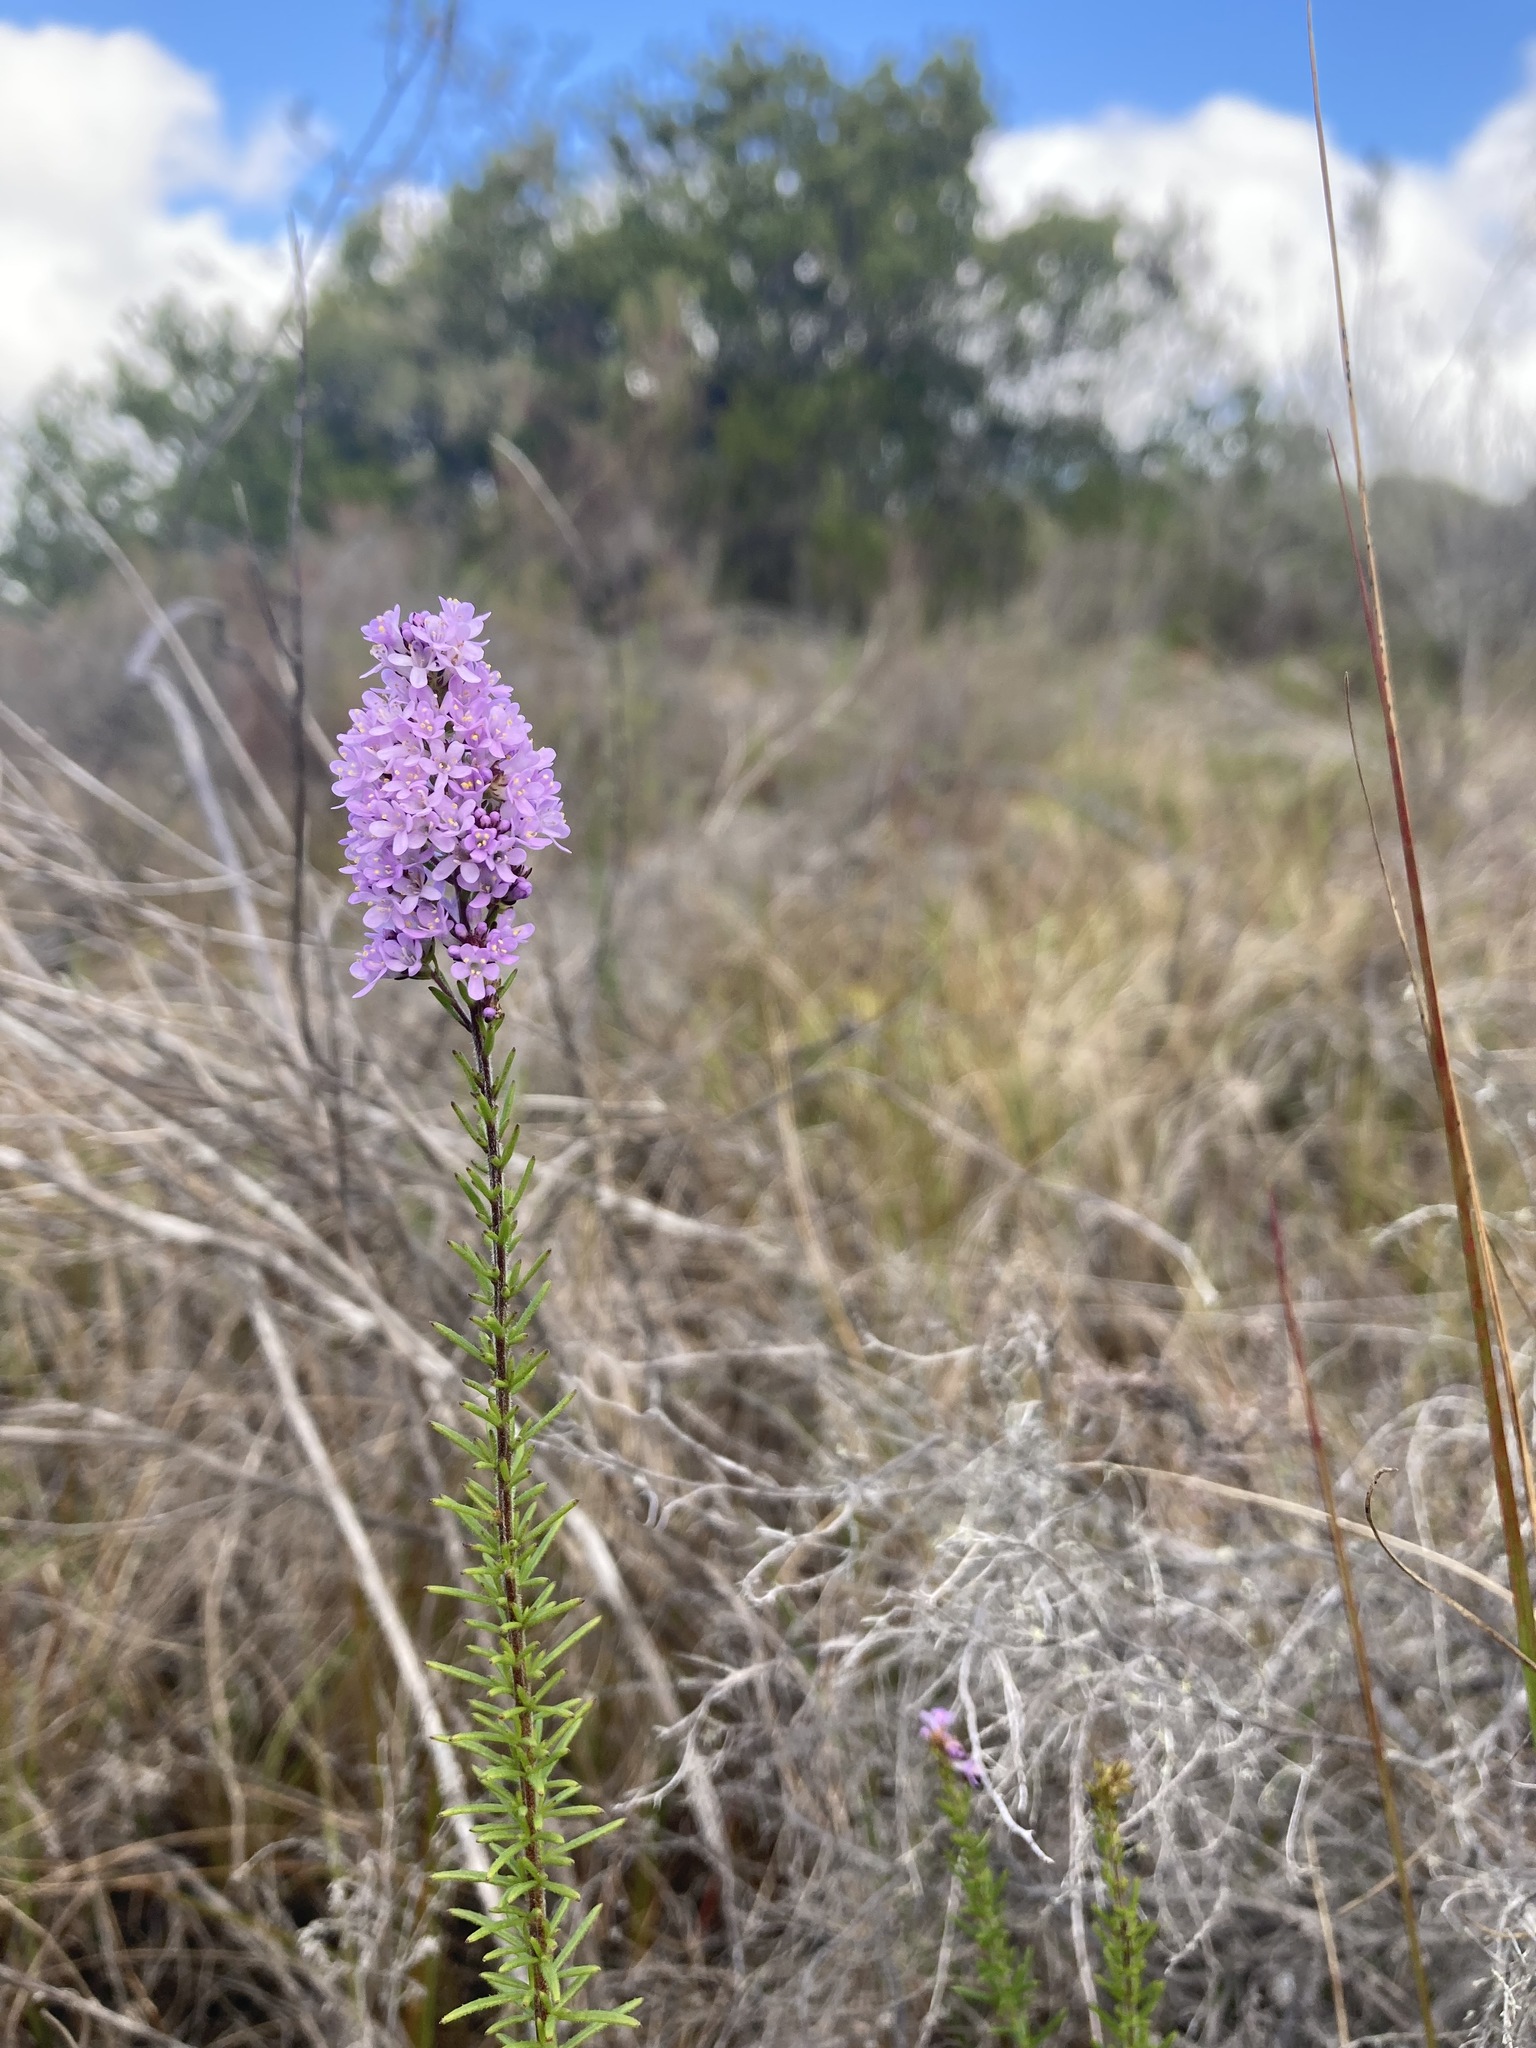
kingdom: Plantae
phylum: Tracheophyta
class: Magnoliopsida
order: Lamiales
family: Scrophulariaceae
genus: Selago
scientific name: Selago canescens
